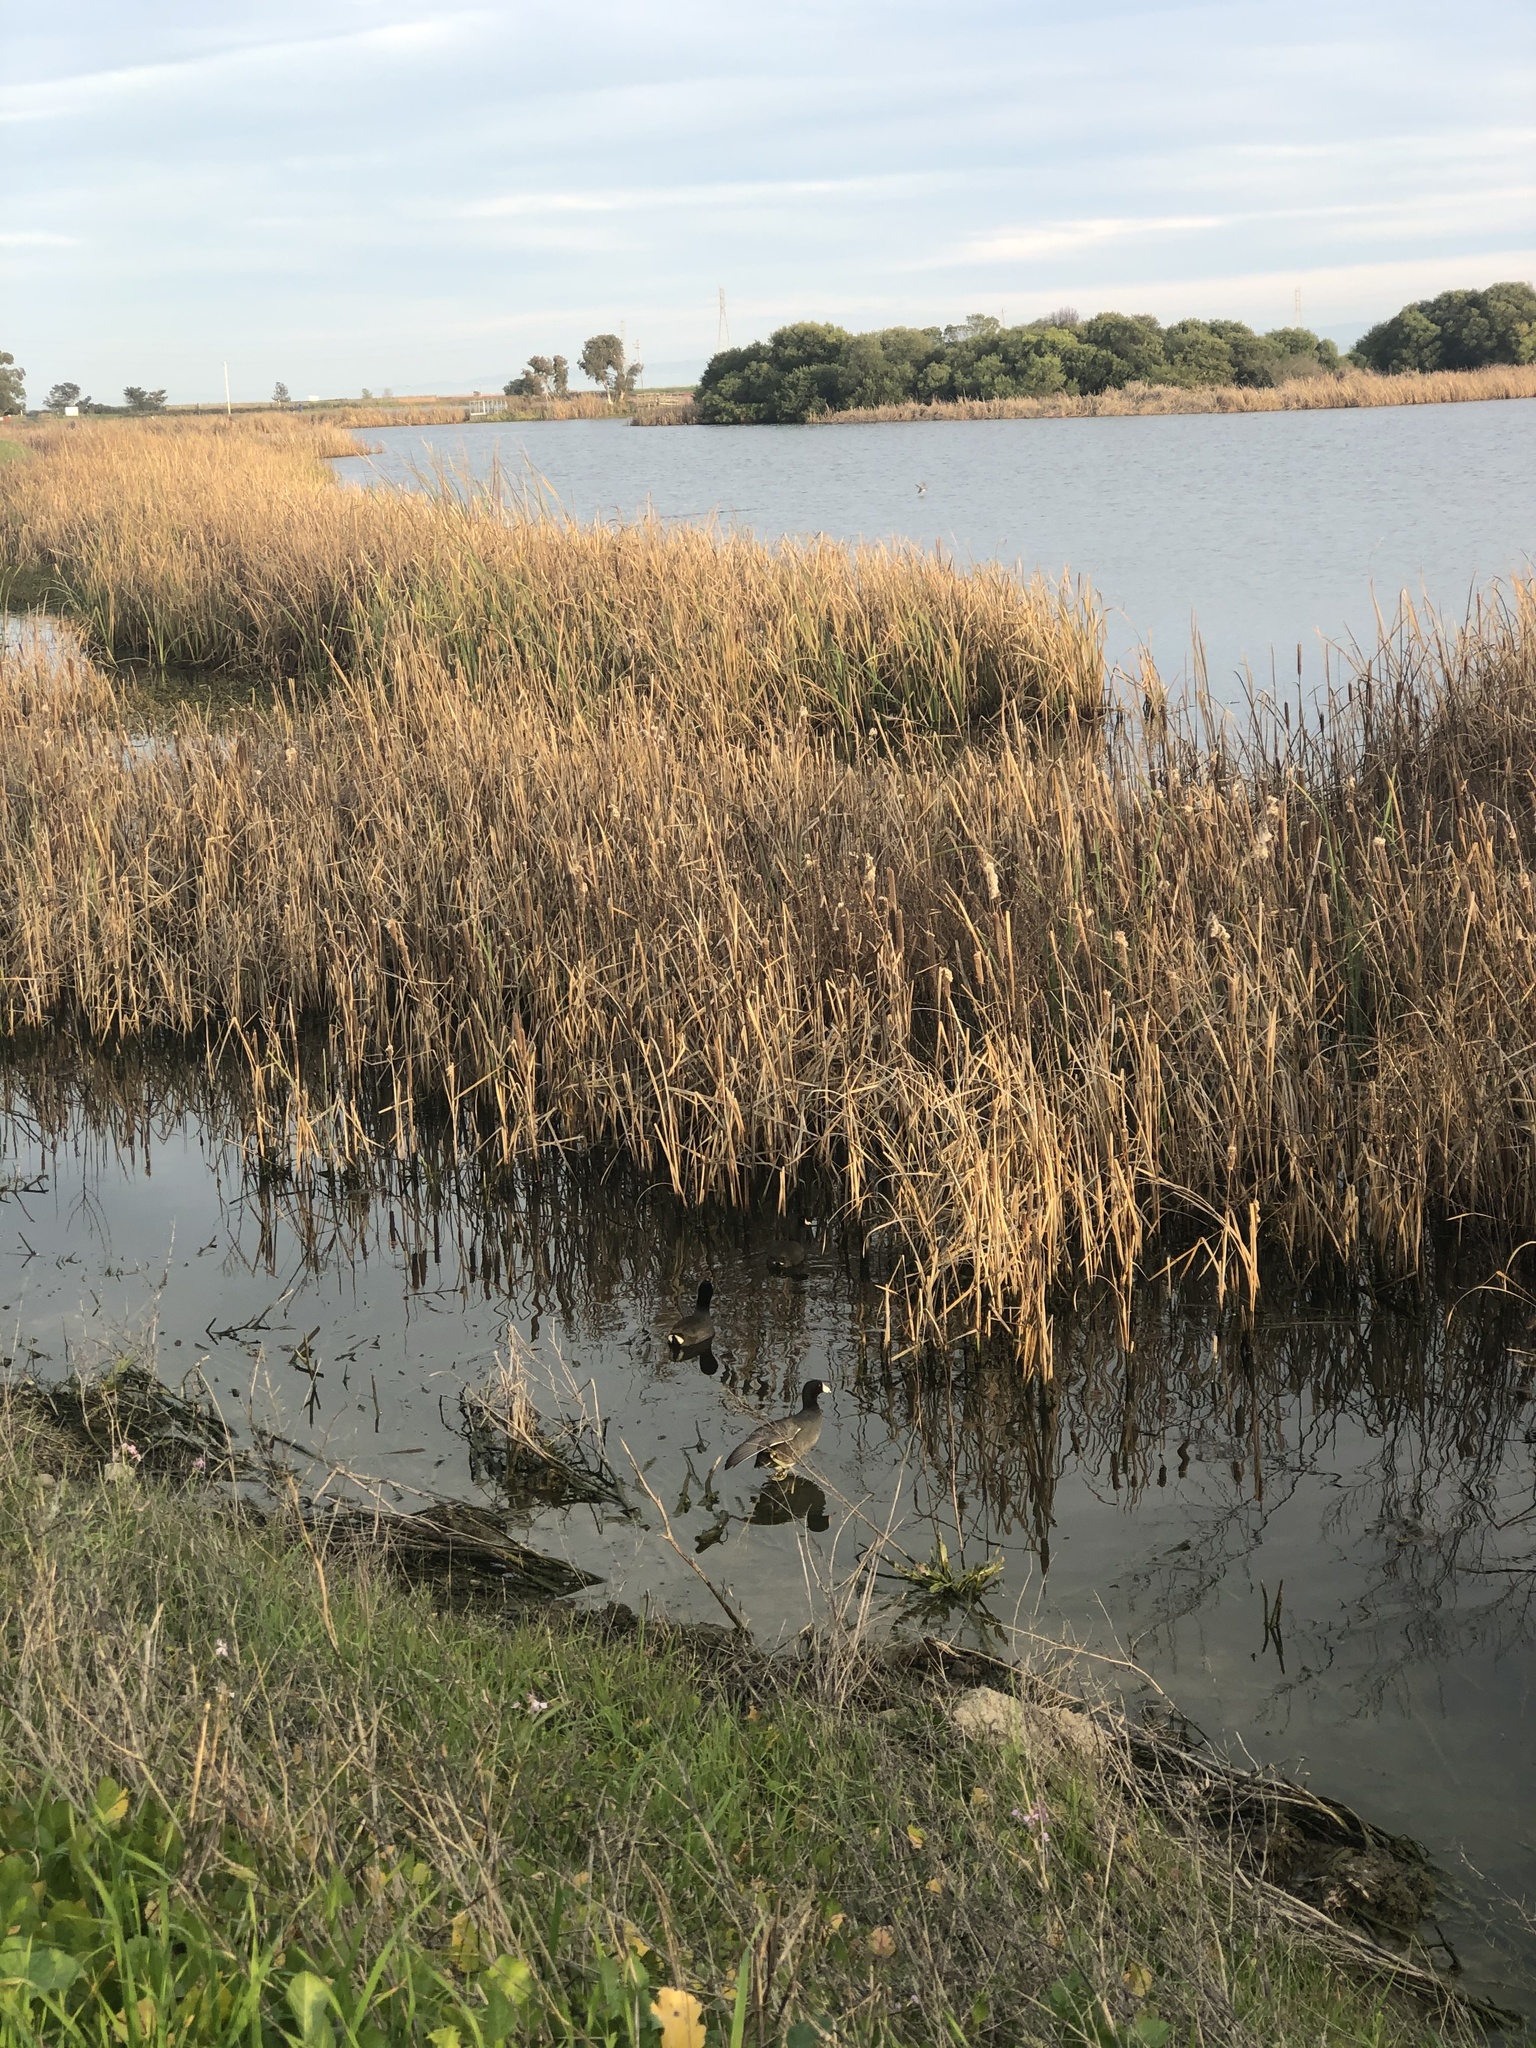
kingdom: Animalia
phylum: Chordata
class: Aves
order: Gruiformes
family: Rallidae
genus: Fulica
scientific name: Fulica americana
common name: American coot
